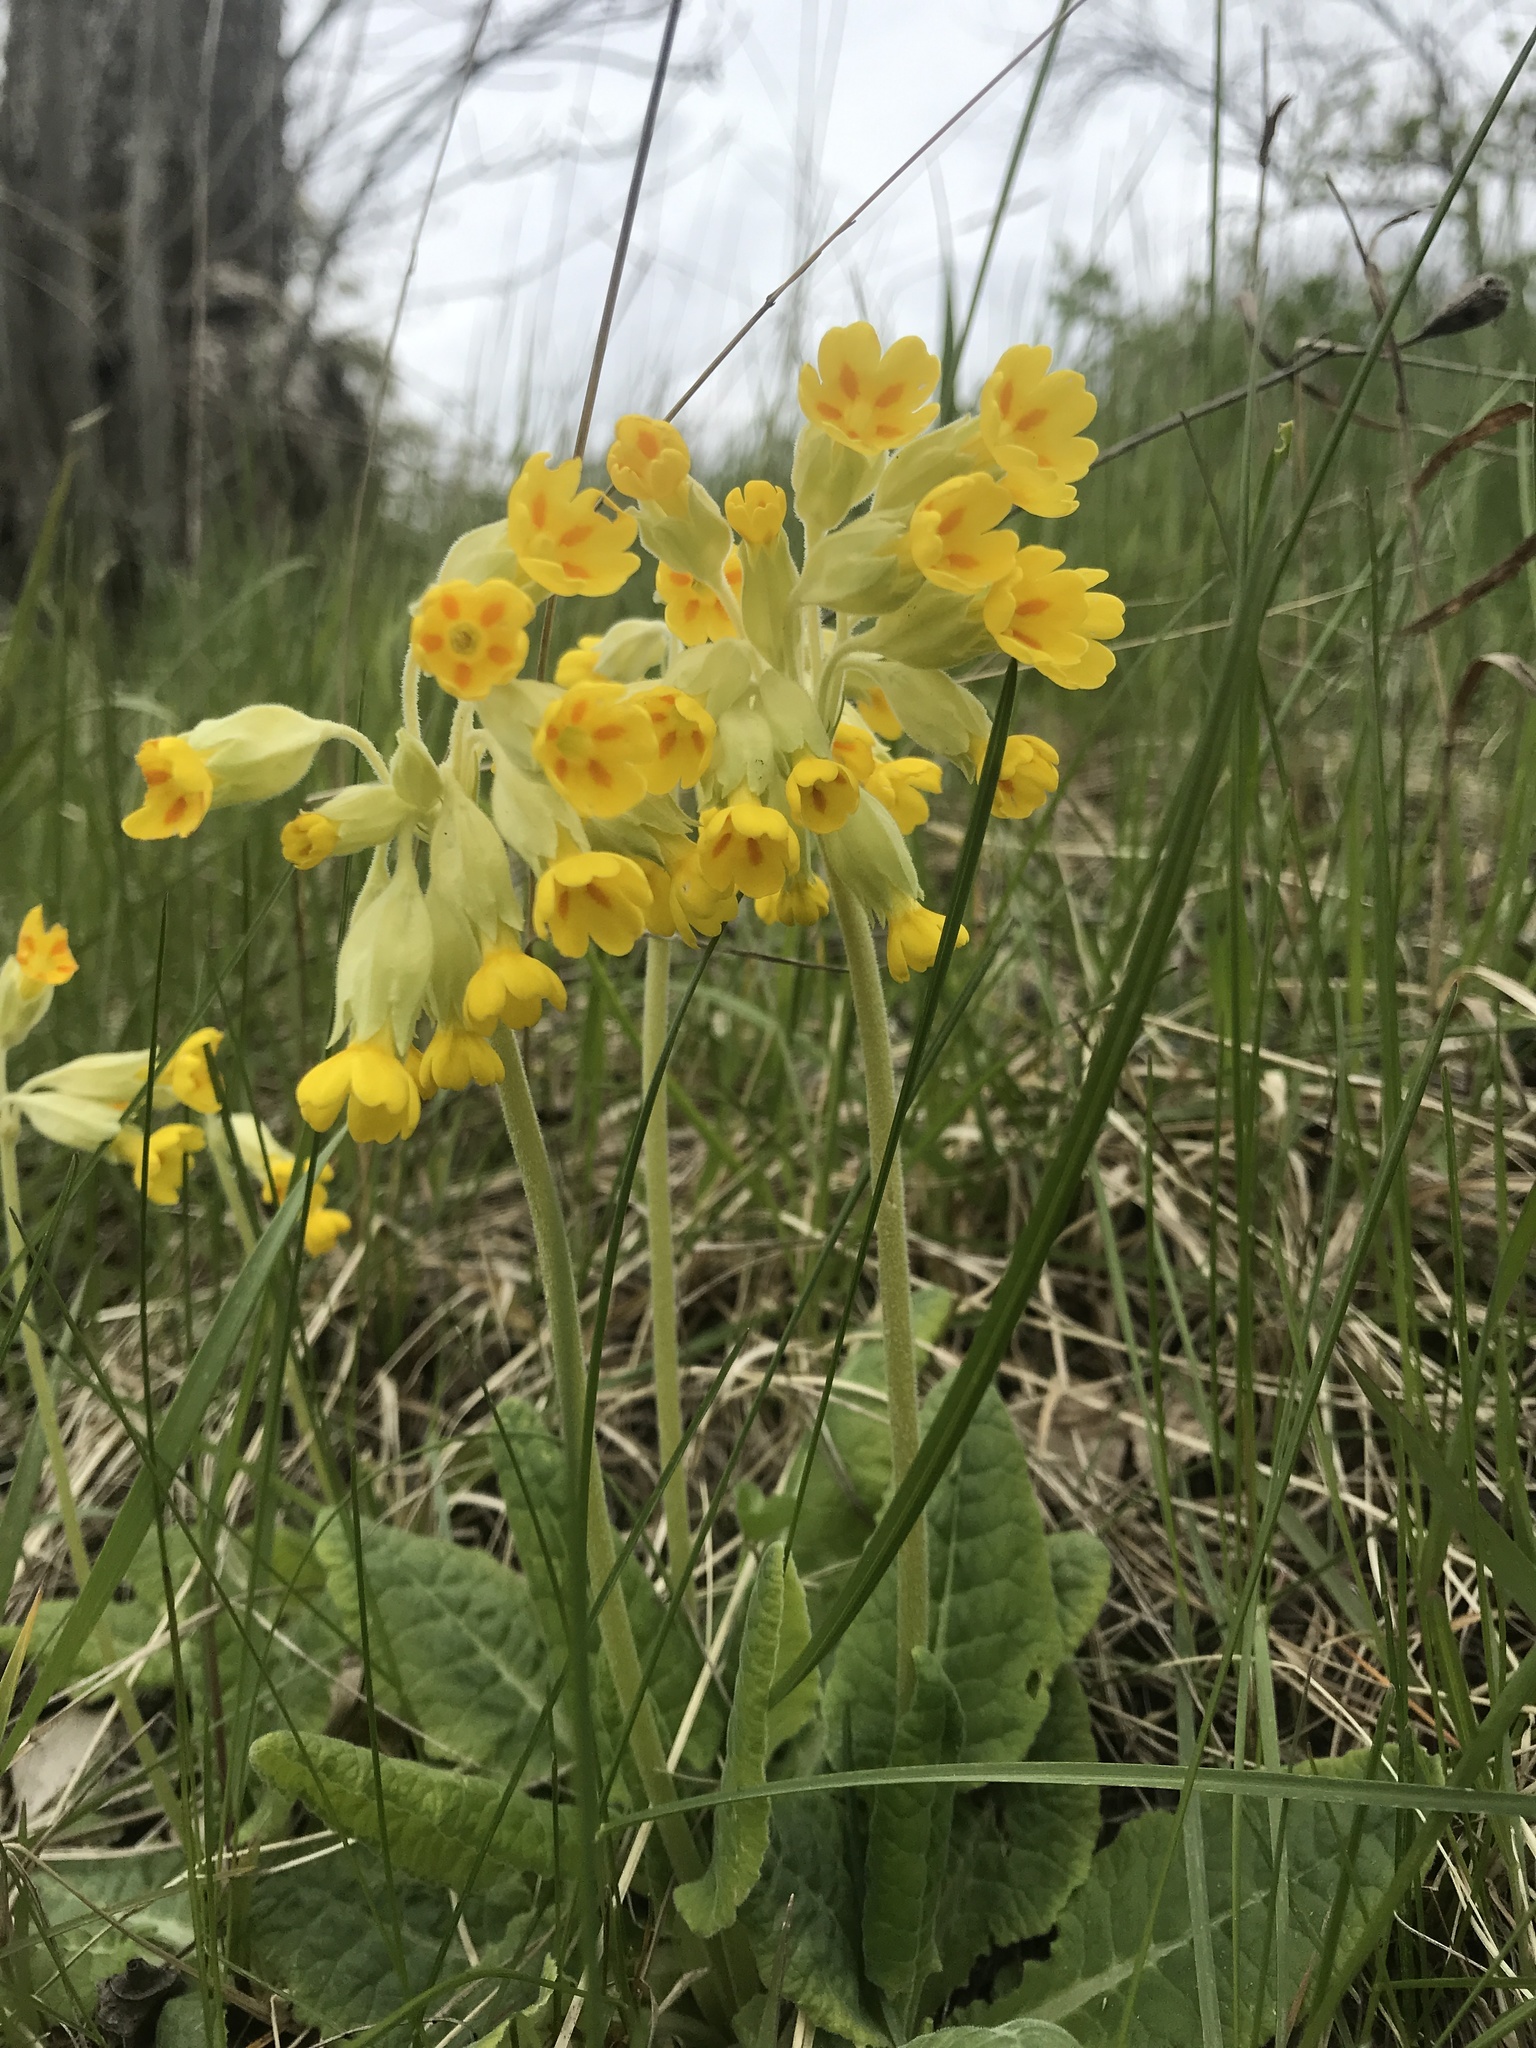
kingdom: Plantae
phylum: Tracheophyta
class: Magnoliopsida
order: Ericales
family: Primulaceae
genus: Primula
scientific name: Primula veris
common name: Cowslip
